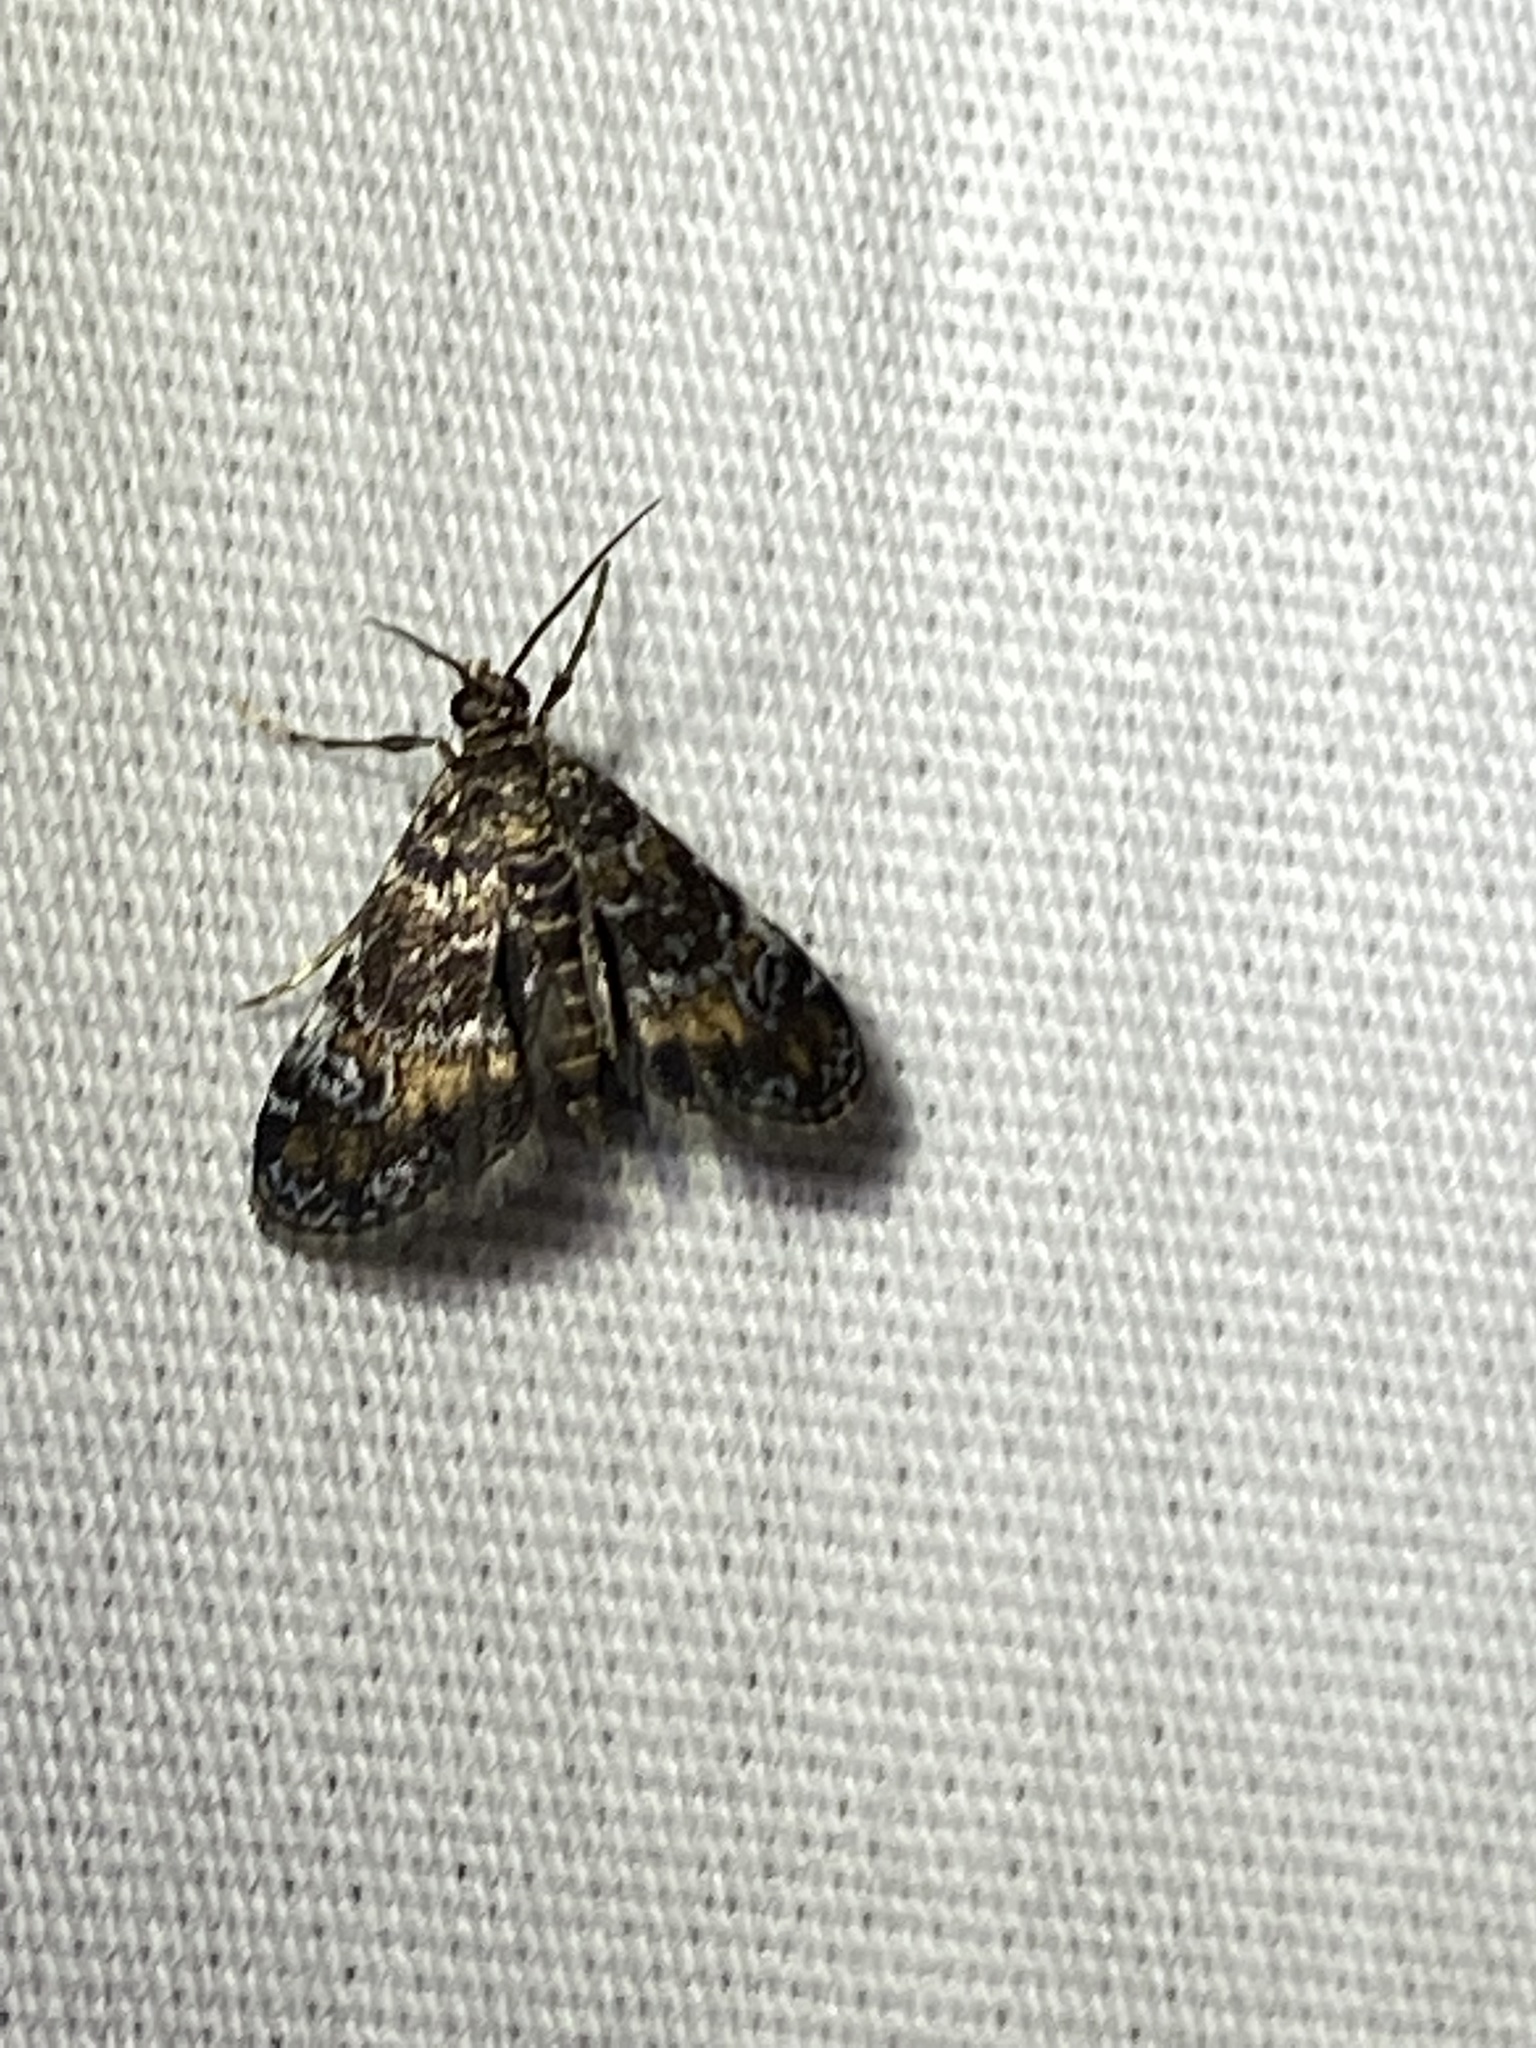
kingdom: Animalia
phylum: Arthropoda
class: Insecta
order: Lepidoptera
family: Crambidae
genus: Elophila
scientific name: Elophila obliteralis
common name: Waterlily leafcutter moth
